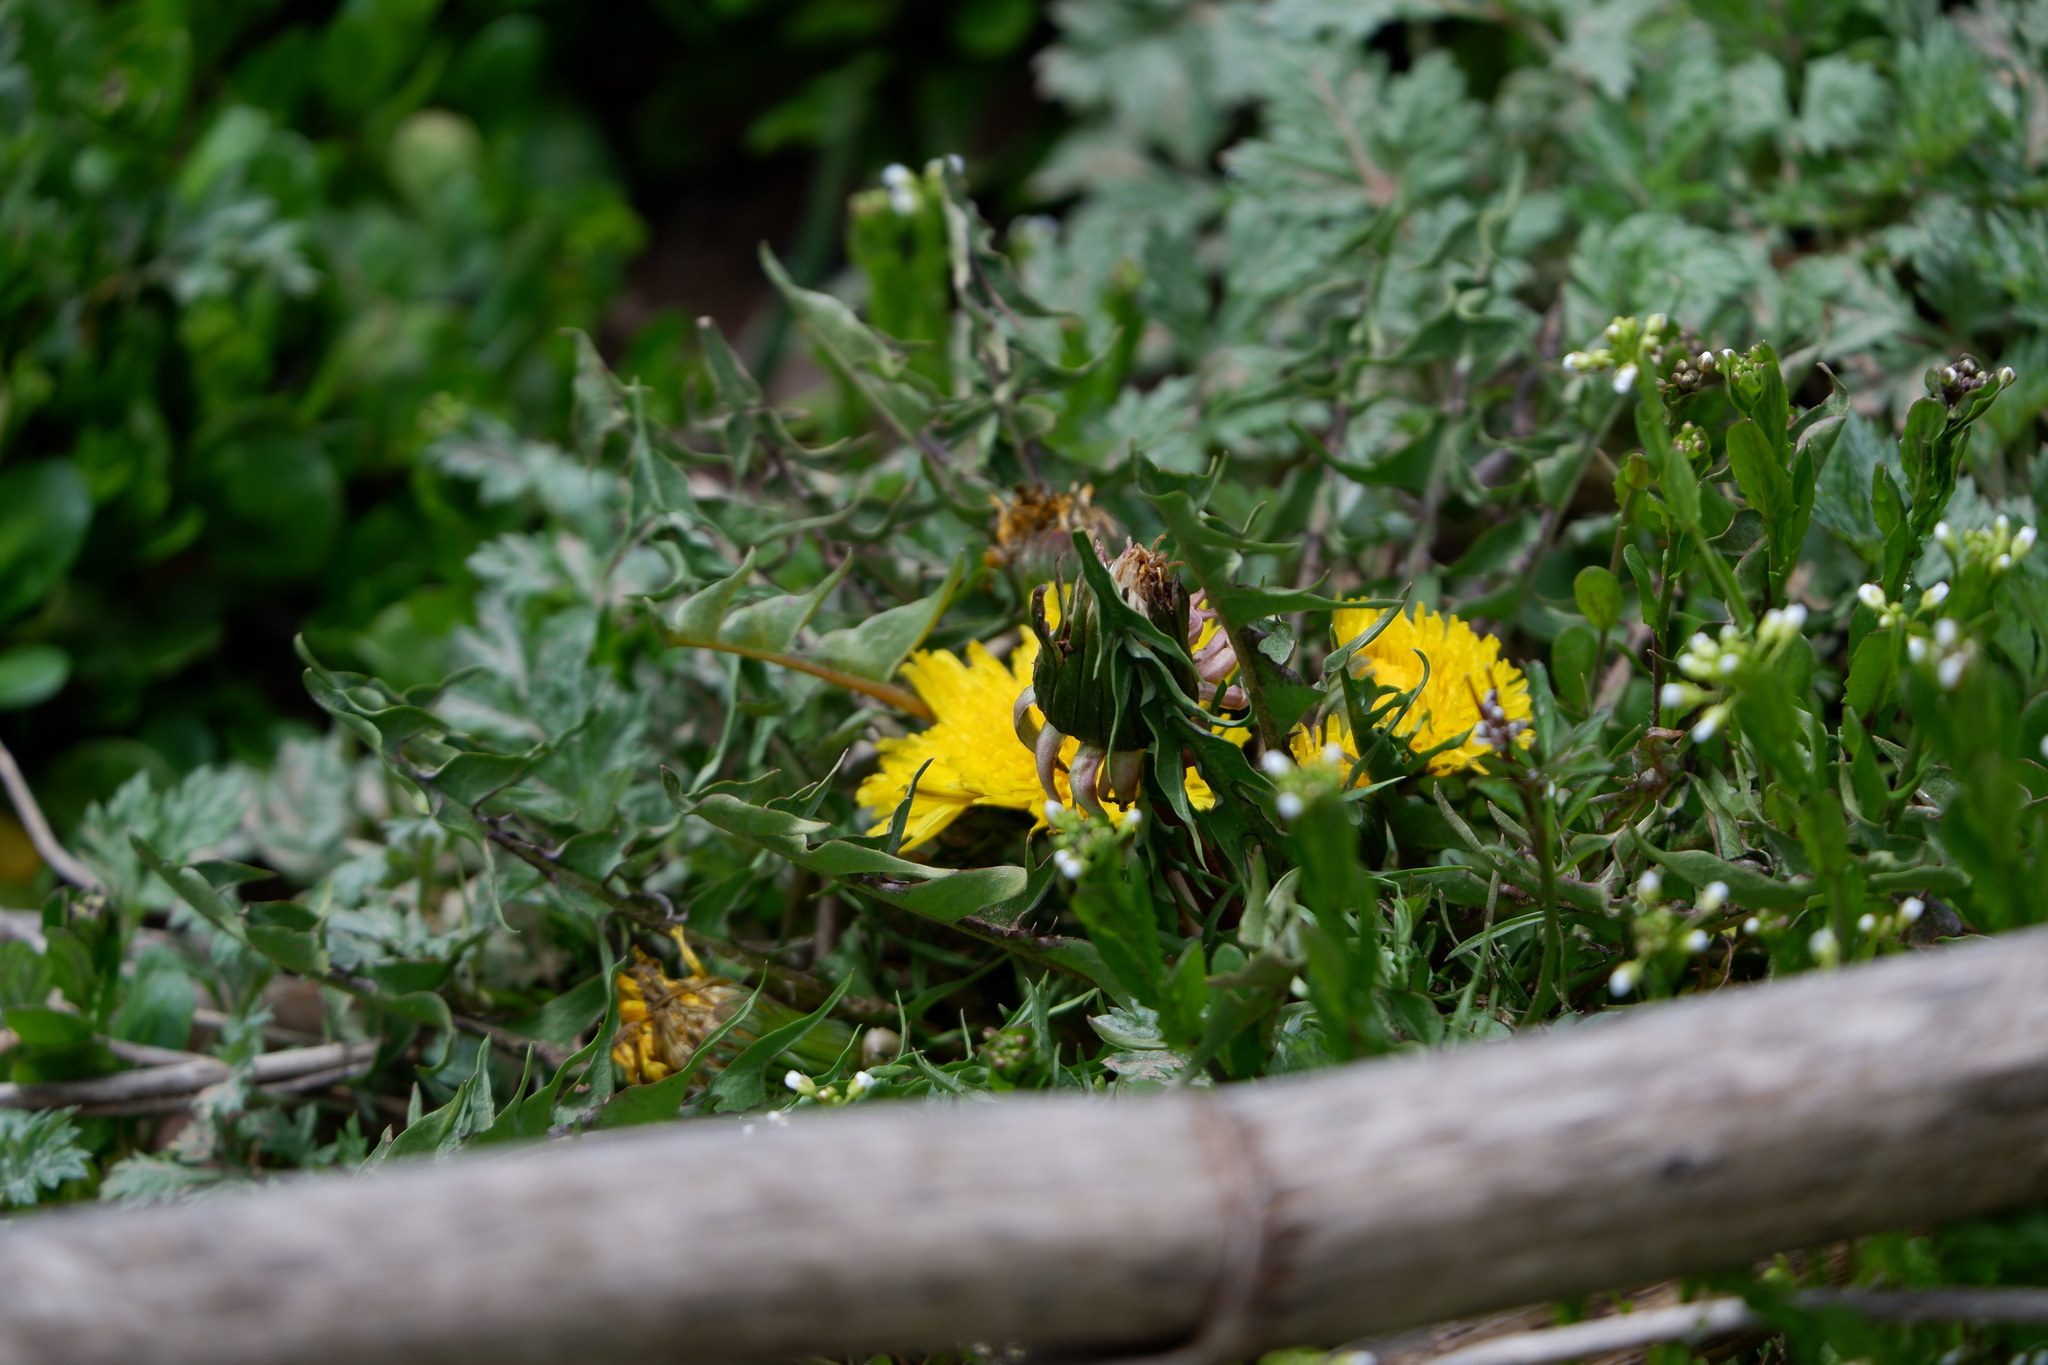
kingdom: Plantae
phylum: Tracheophyta
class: Magnoliopsida
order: Asterales
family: Asteraceae
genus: Taraxacum
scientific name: Taraxacum
